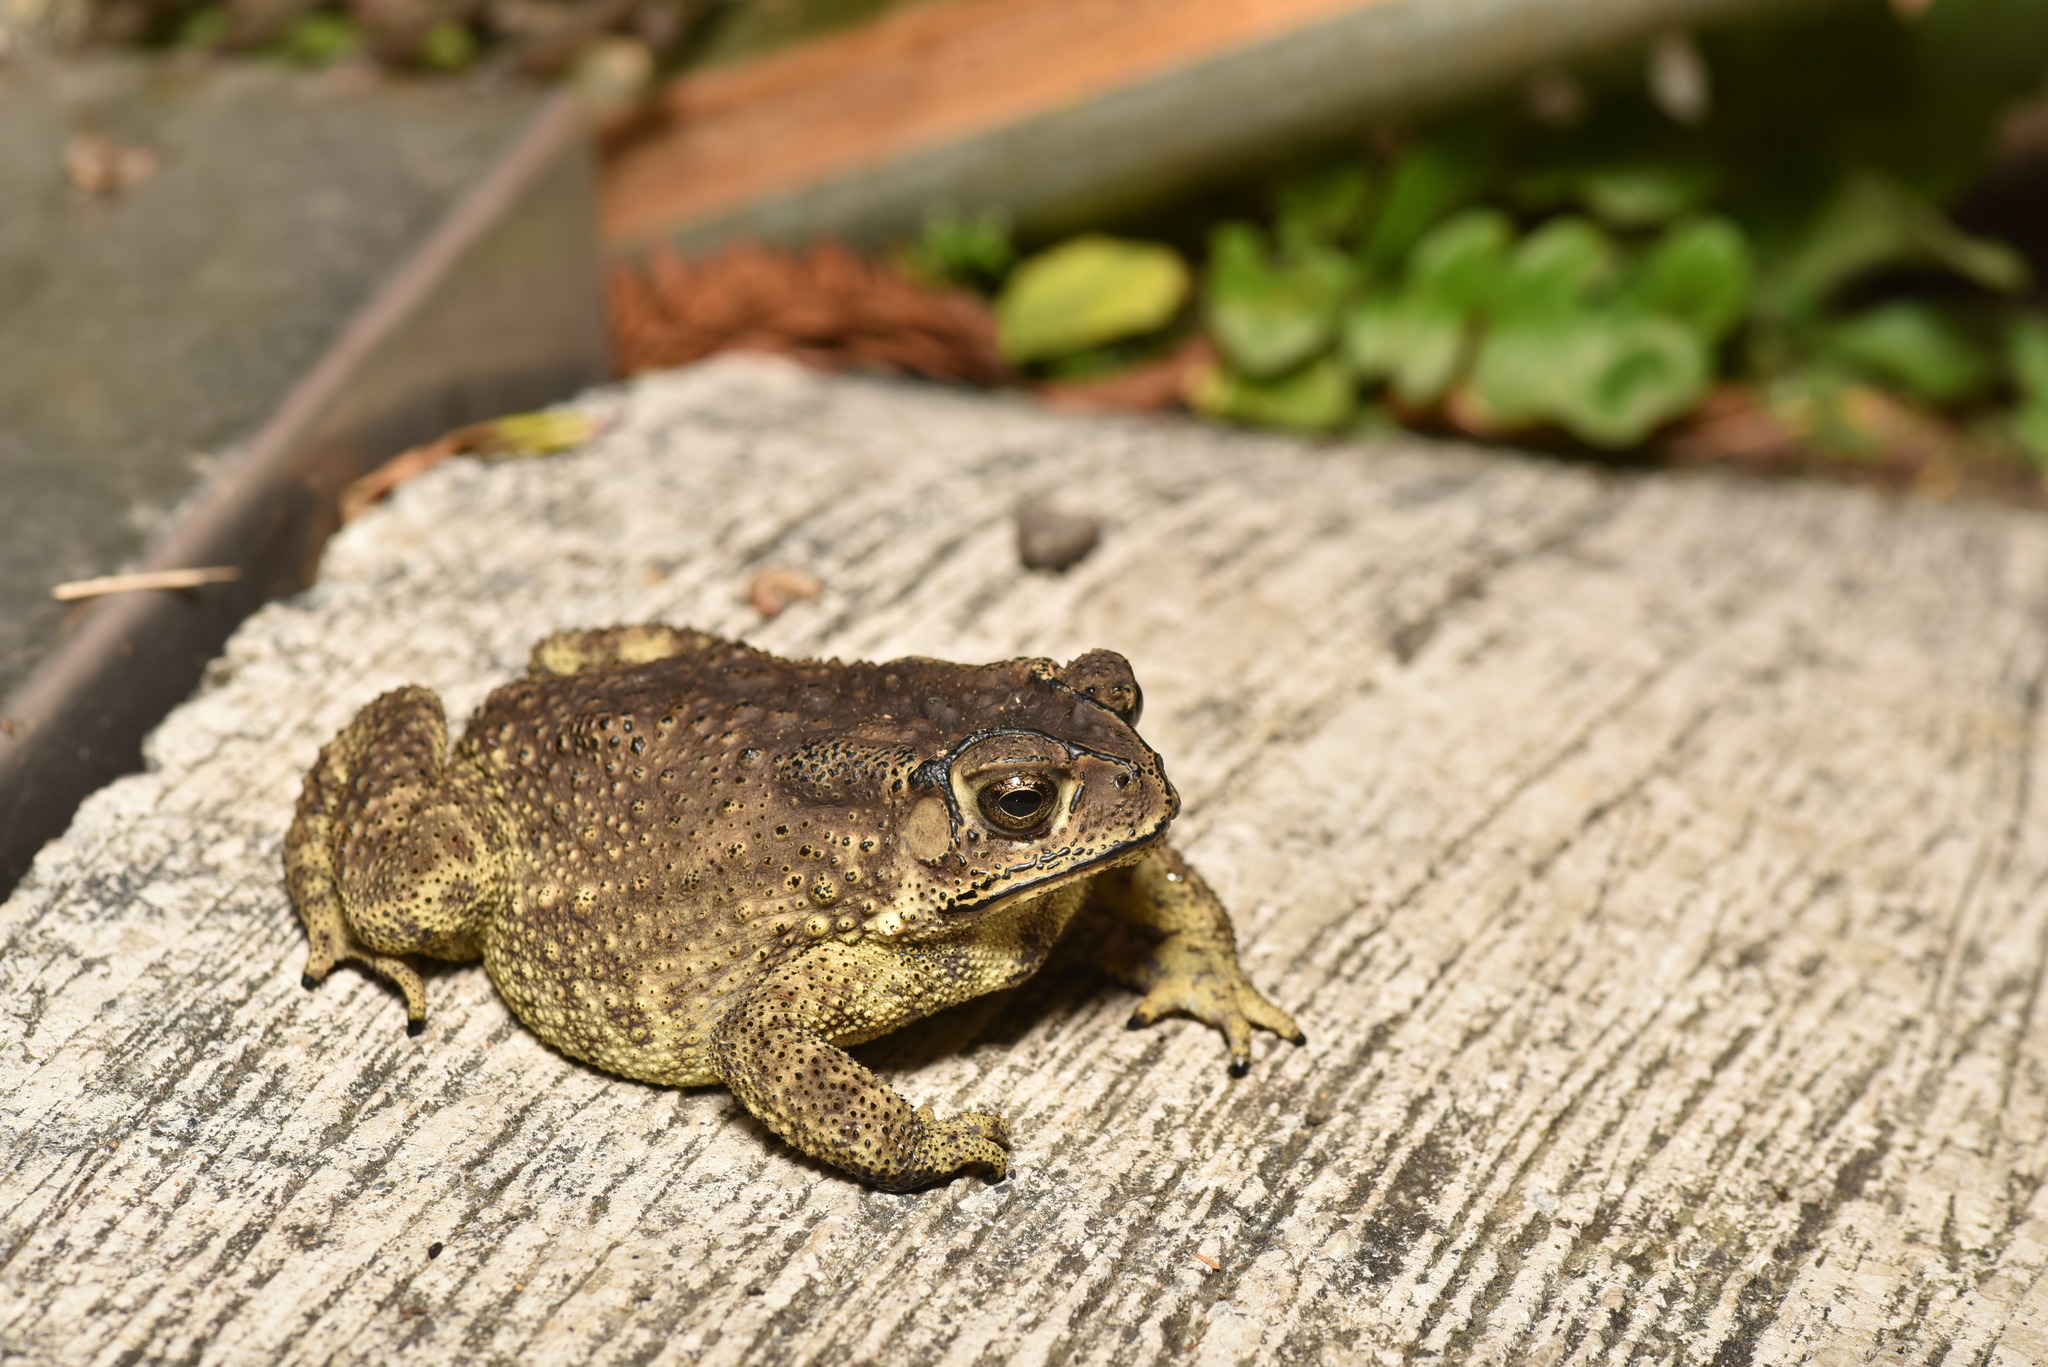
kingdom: Animalia
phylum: Chordata
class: Amphibia
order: Anura
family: Bufonidae
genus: Duttaphrynus
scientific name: Duttaphrynus melanostictus
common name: Common sunda toad
